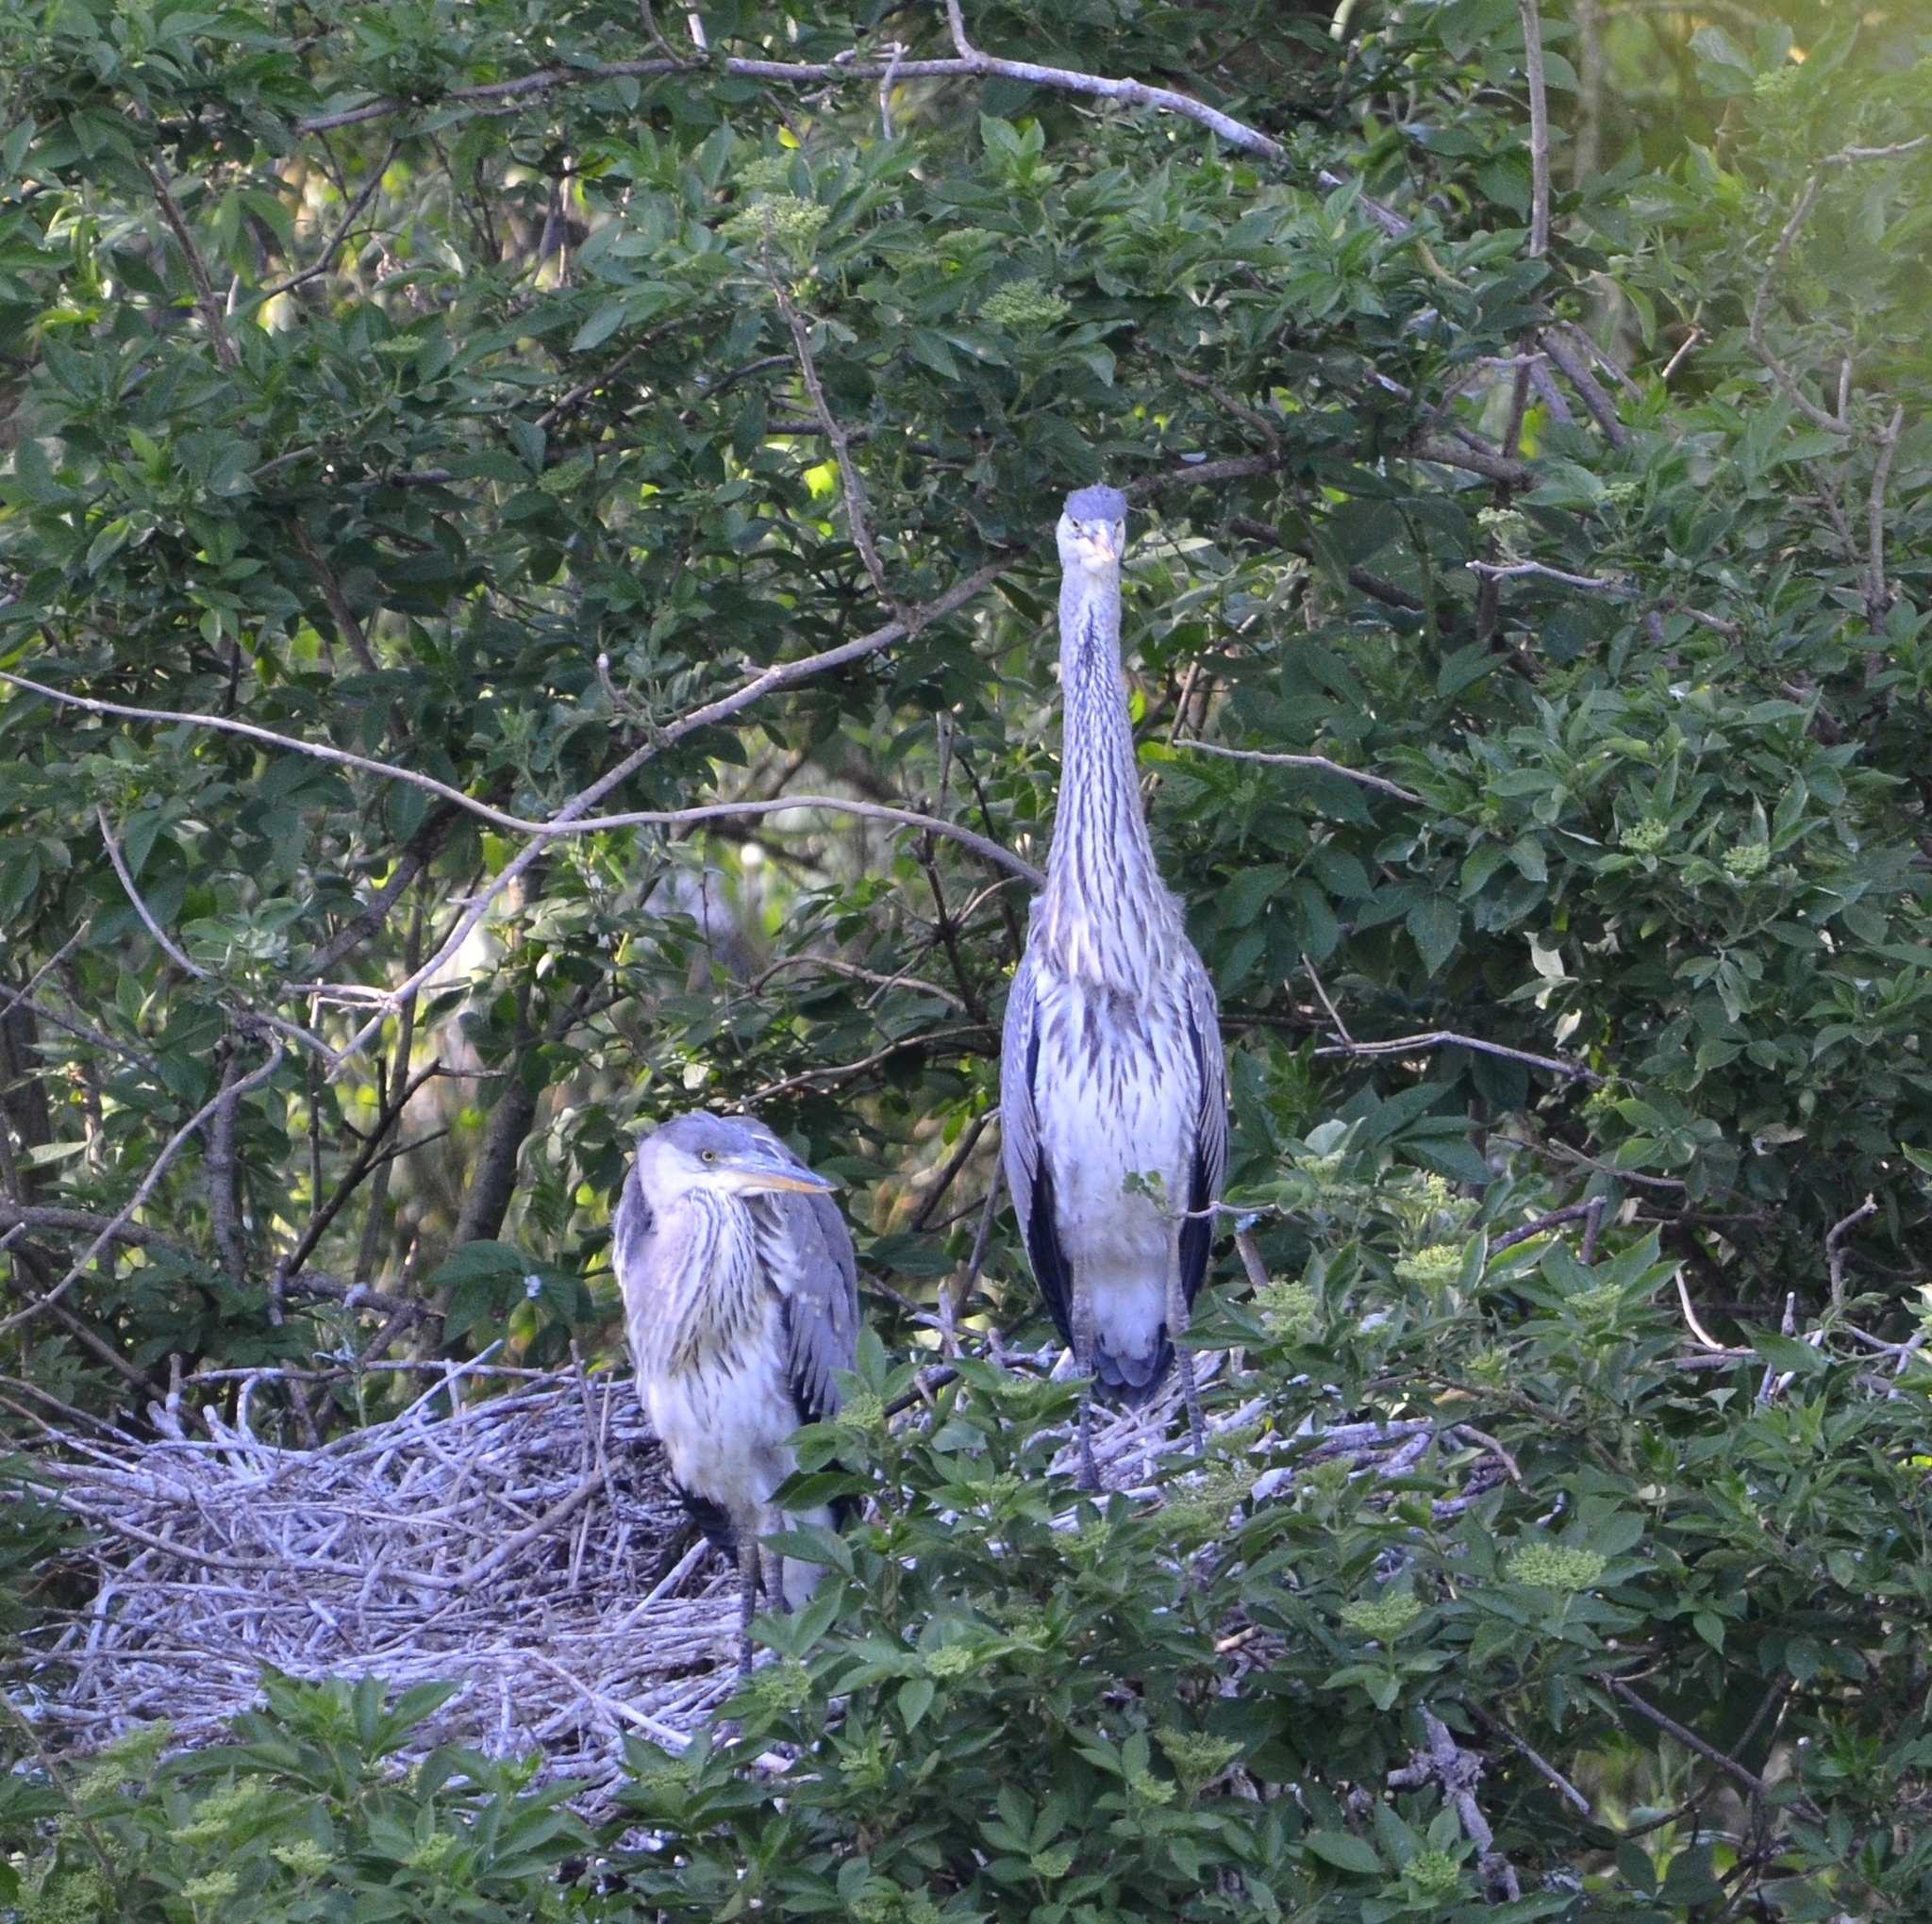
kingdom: Animalia
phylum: Chordata
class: Aves
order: Pelecaniformes
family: Ardeidae
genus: Ardea
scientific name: Ardea cinerea
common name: Grey heron
